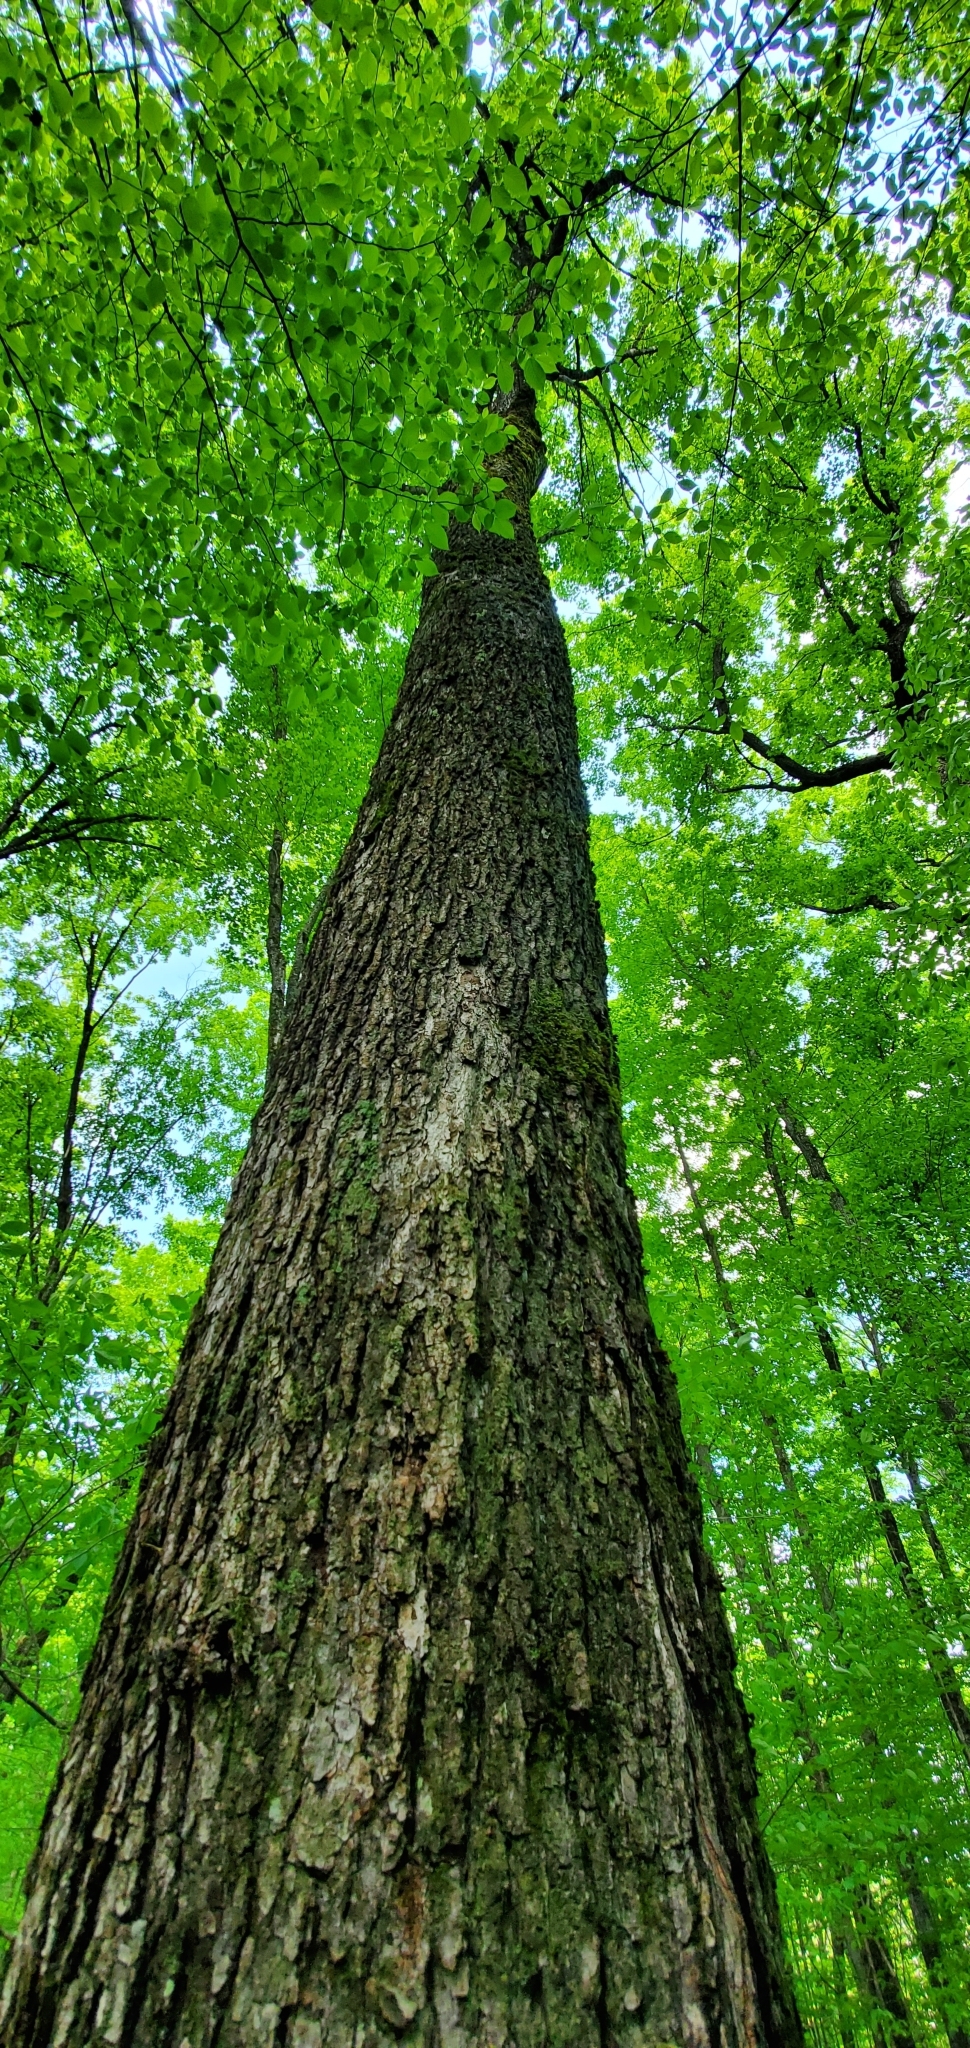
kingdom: Plantae
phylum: Tracheophyta
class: Magnoliopsida
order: Sapindales
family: Sapindaceae
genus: Acer
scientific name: Acer saccharum
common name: Sugar maple
